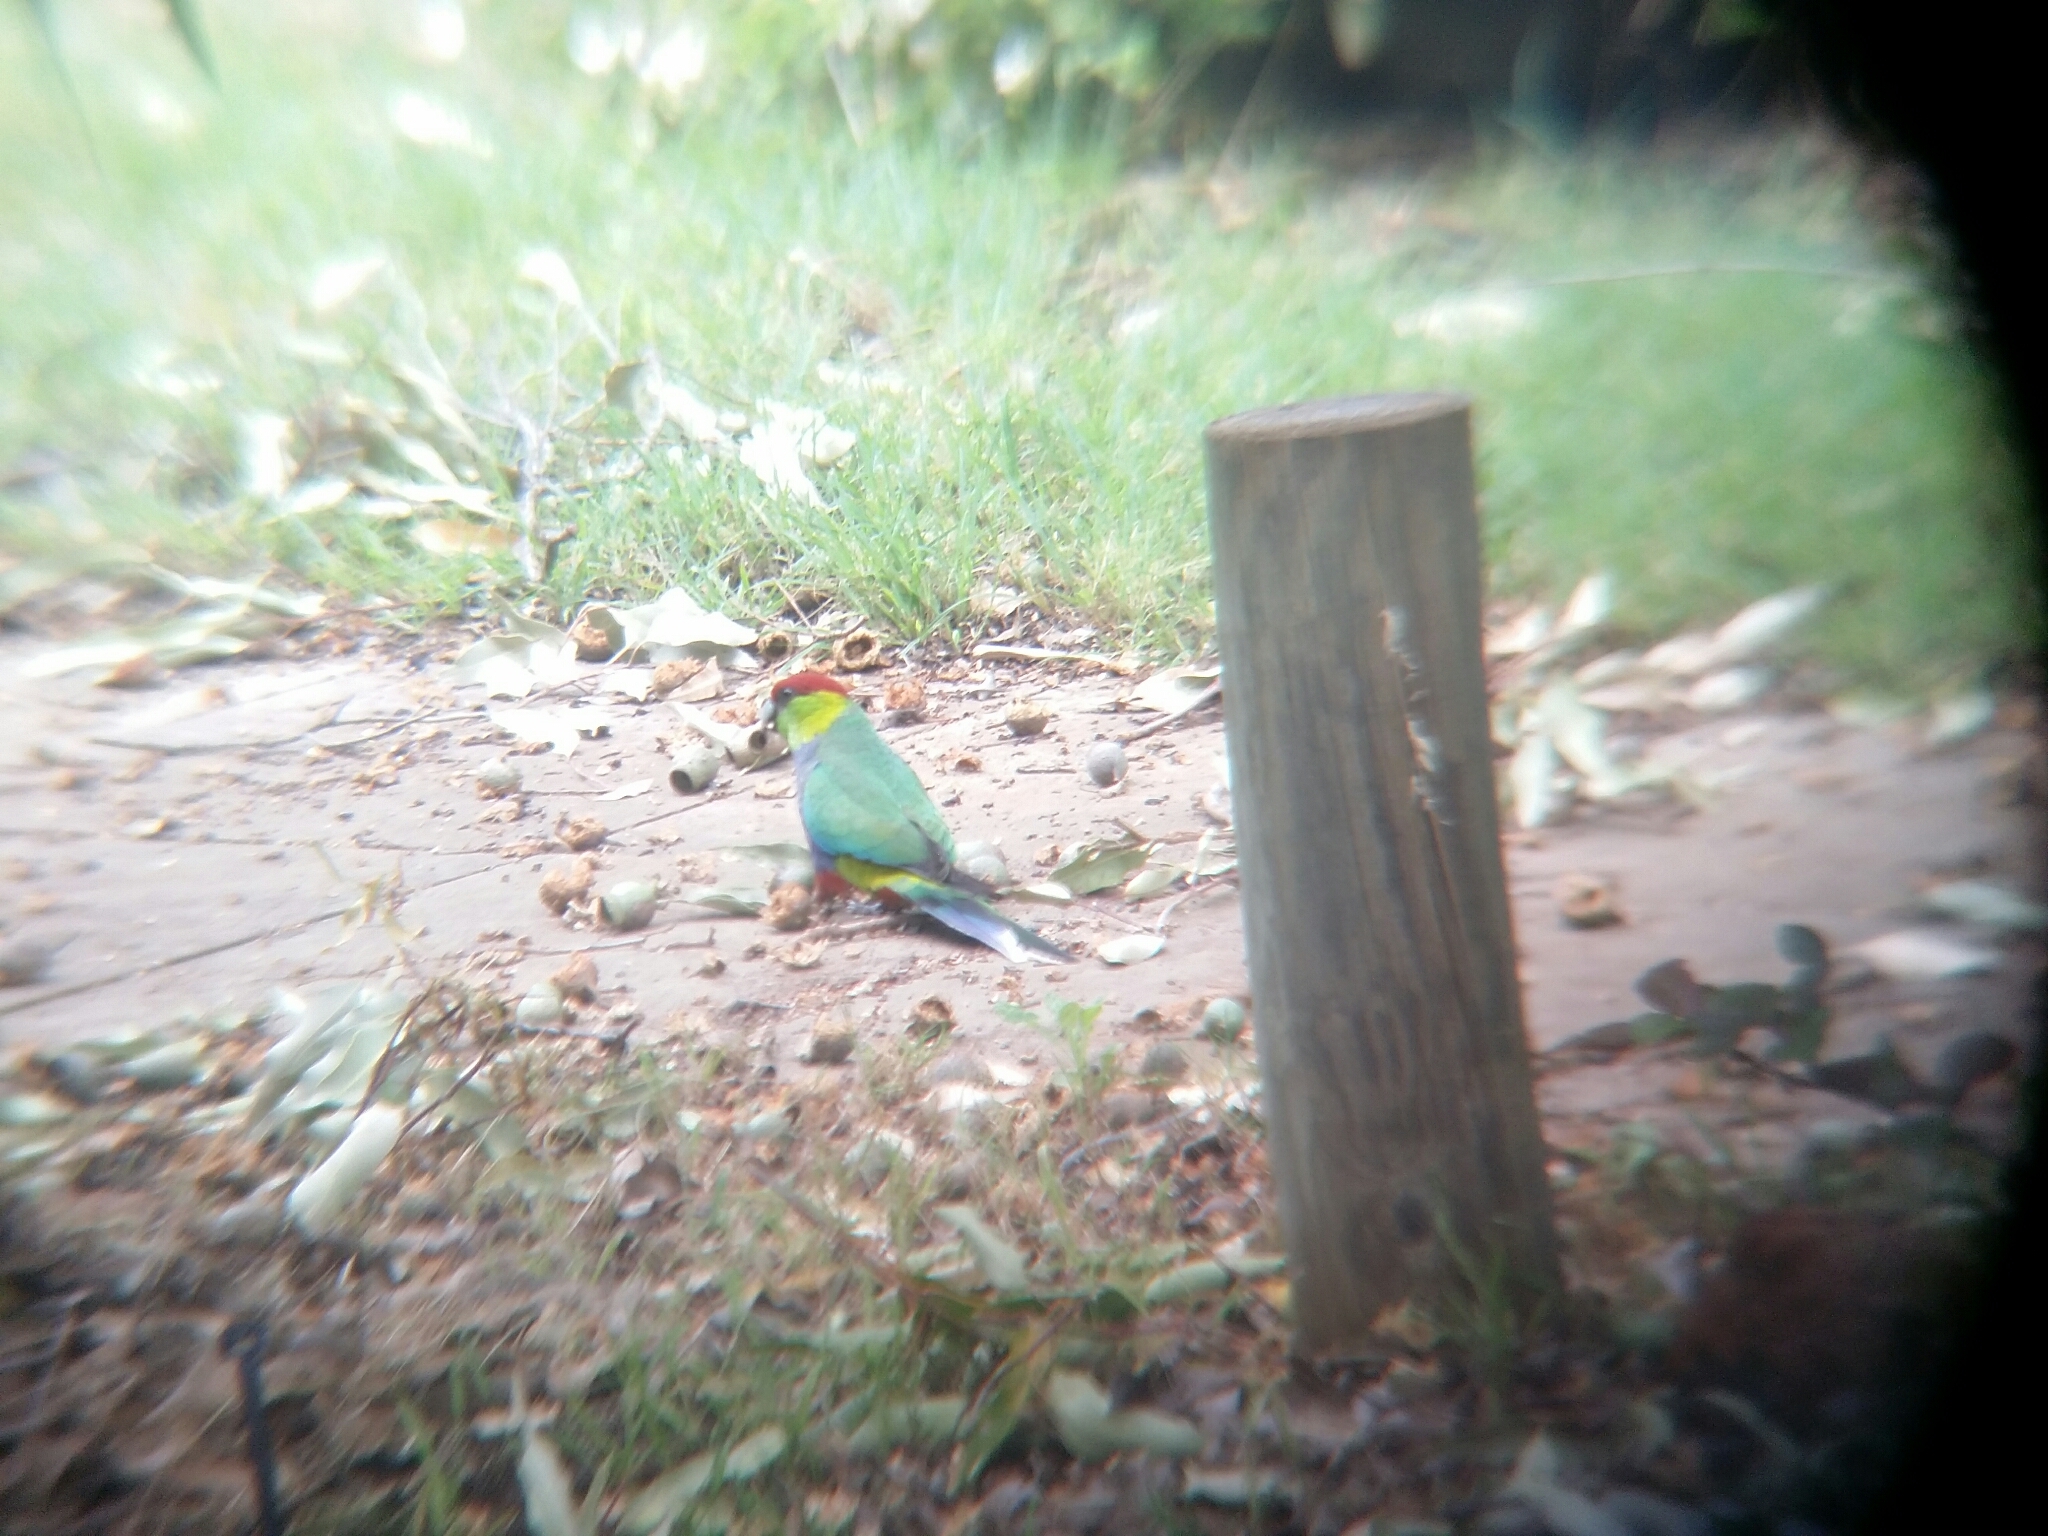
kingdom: Animalia
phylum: Chordata
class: Aves
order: Psittaciformes
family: Psittacidae
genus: Purpureicephalus
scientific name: Purpureicephalus spurius
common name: Red-capped parrot
